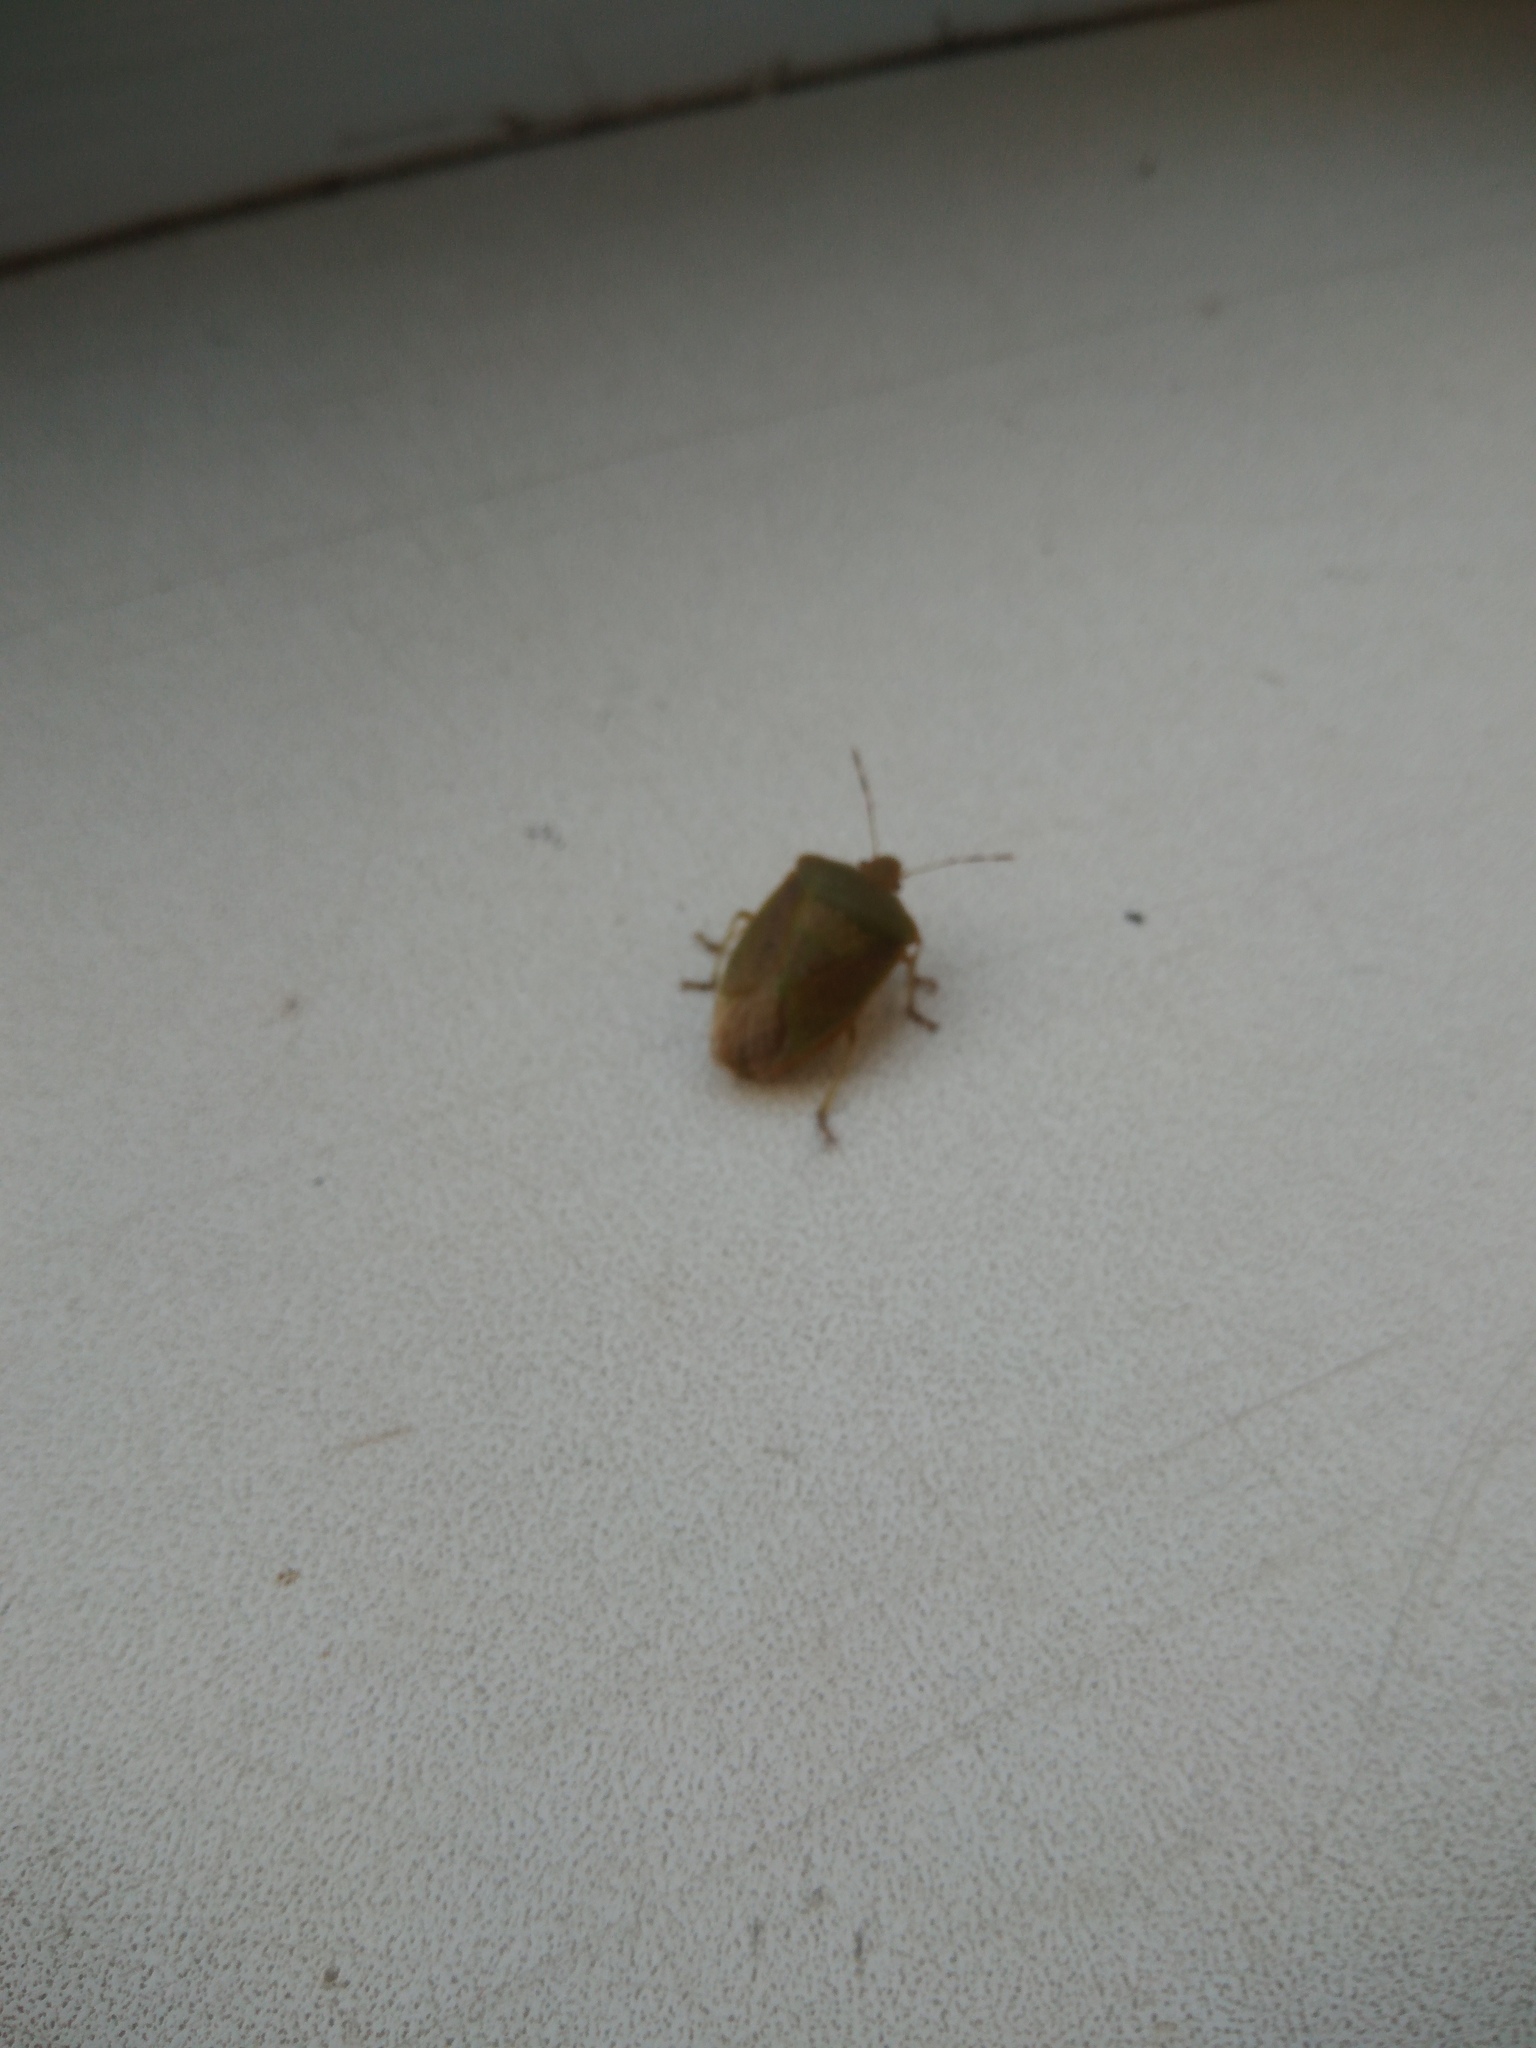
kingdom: Animalia
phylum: Arthropoda
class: Insecta
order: Hemiptera
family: Pentatomidae
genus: Nezara
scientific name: Nezara viridula
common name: Southern green stink bug
